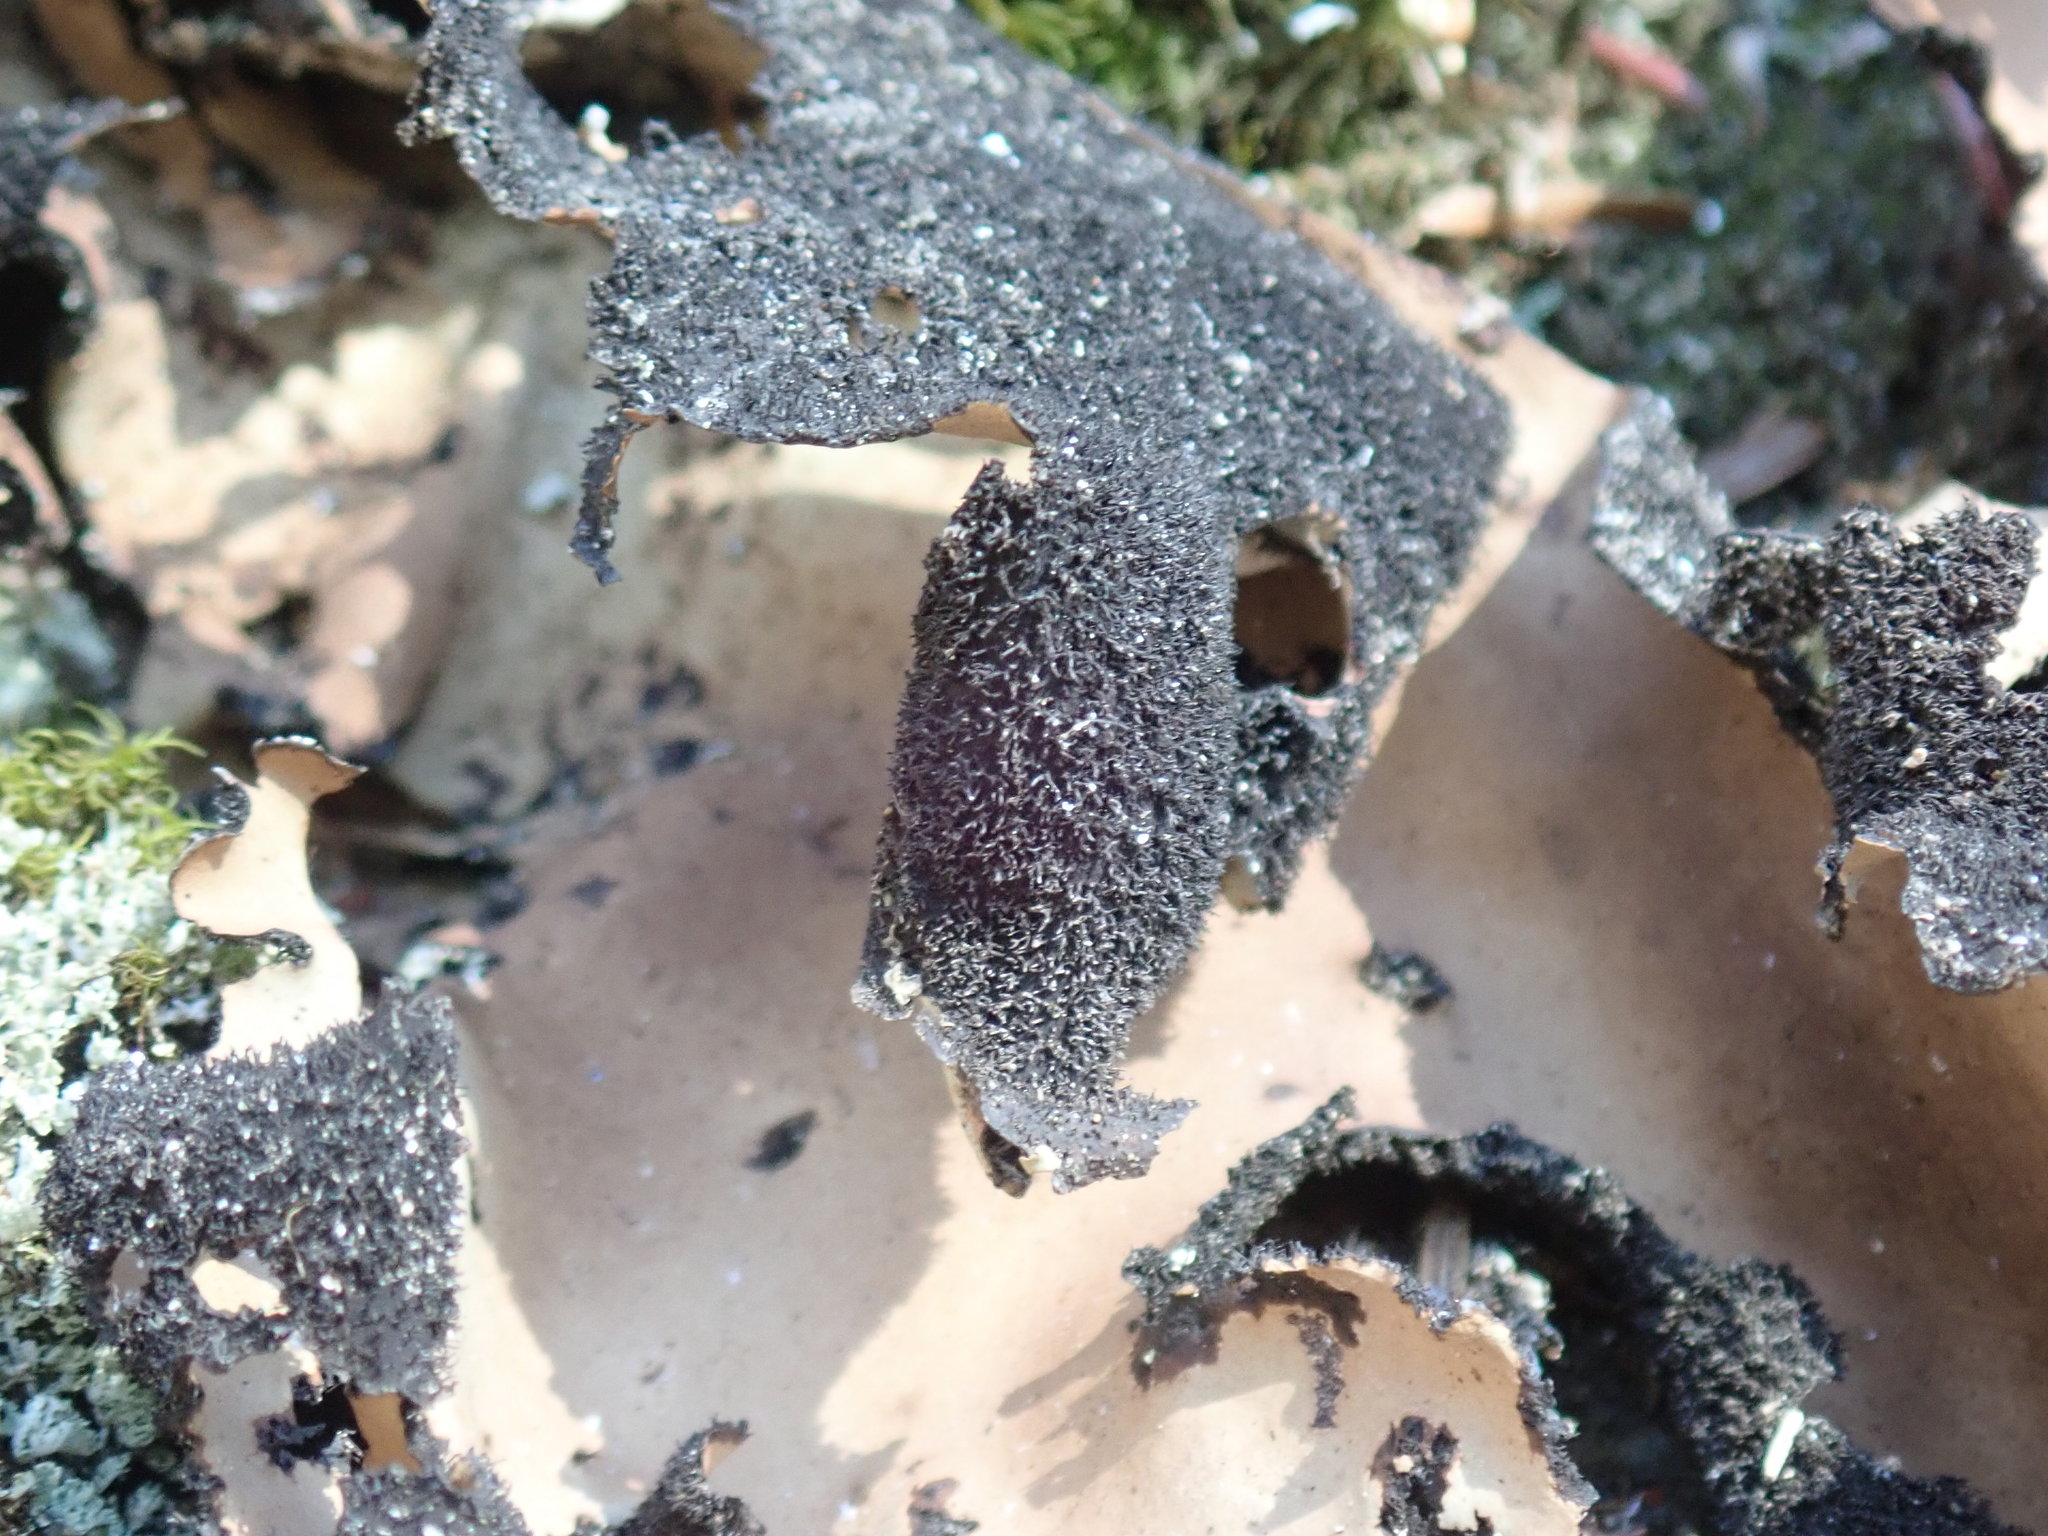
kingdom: Fungi
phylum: Ascomycota
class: Lecanoromycetes
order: Umbilicariales
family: Umbilicariaceae
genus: Umbilicaria
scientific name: Umbilicaria mammulata
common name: Smooth rock tripe
